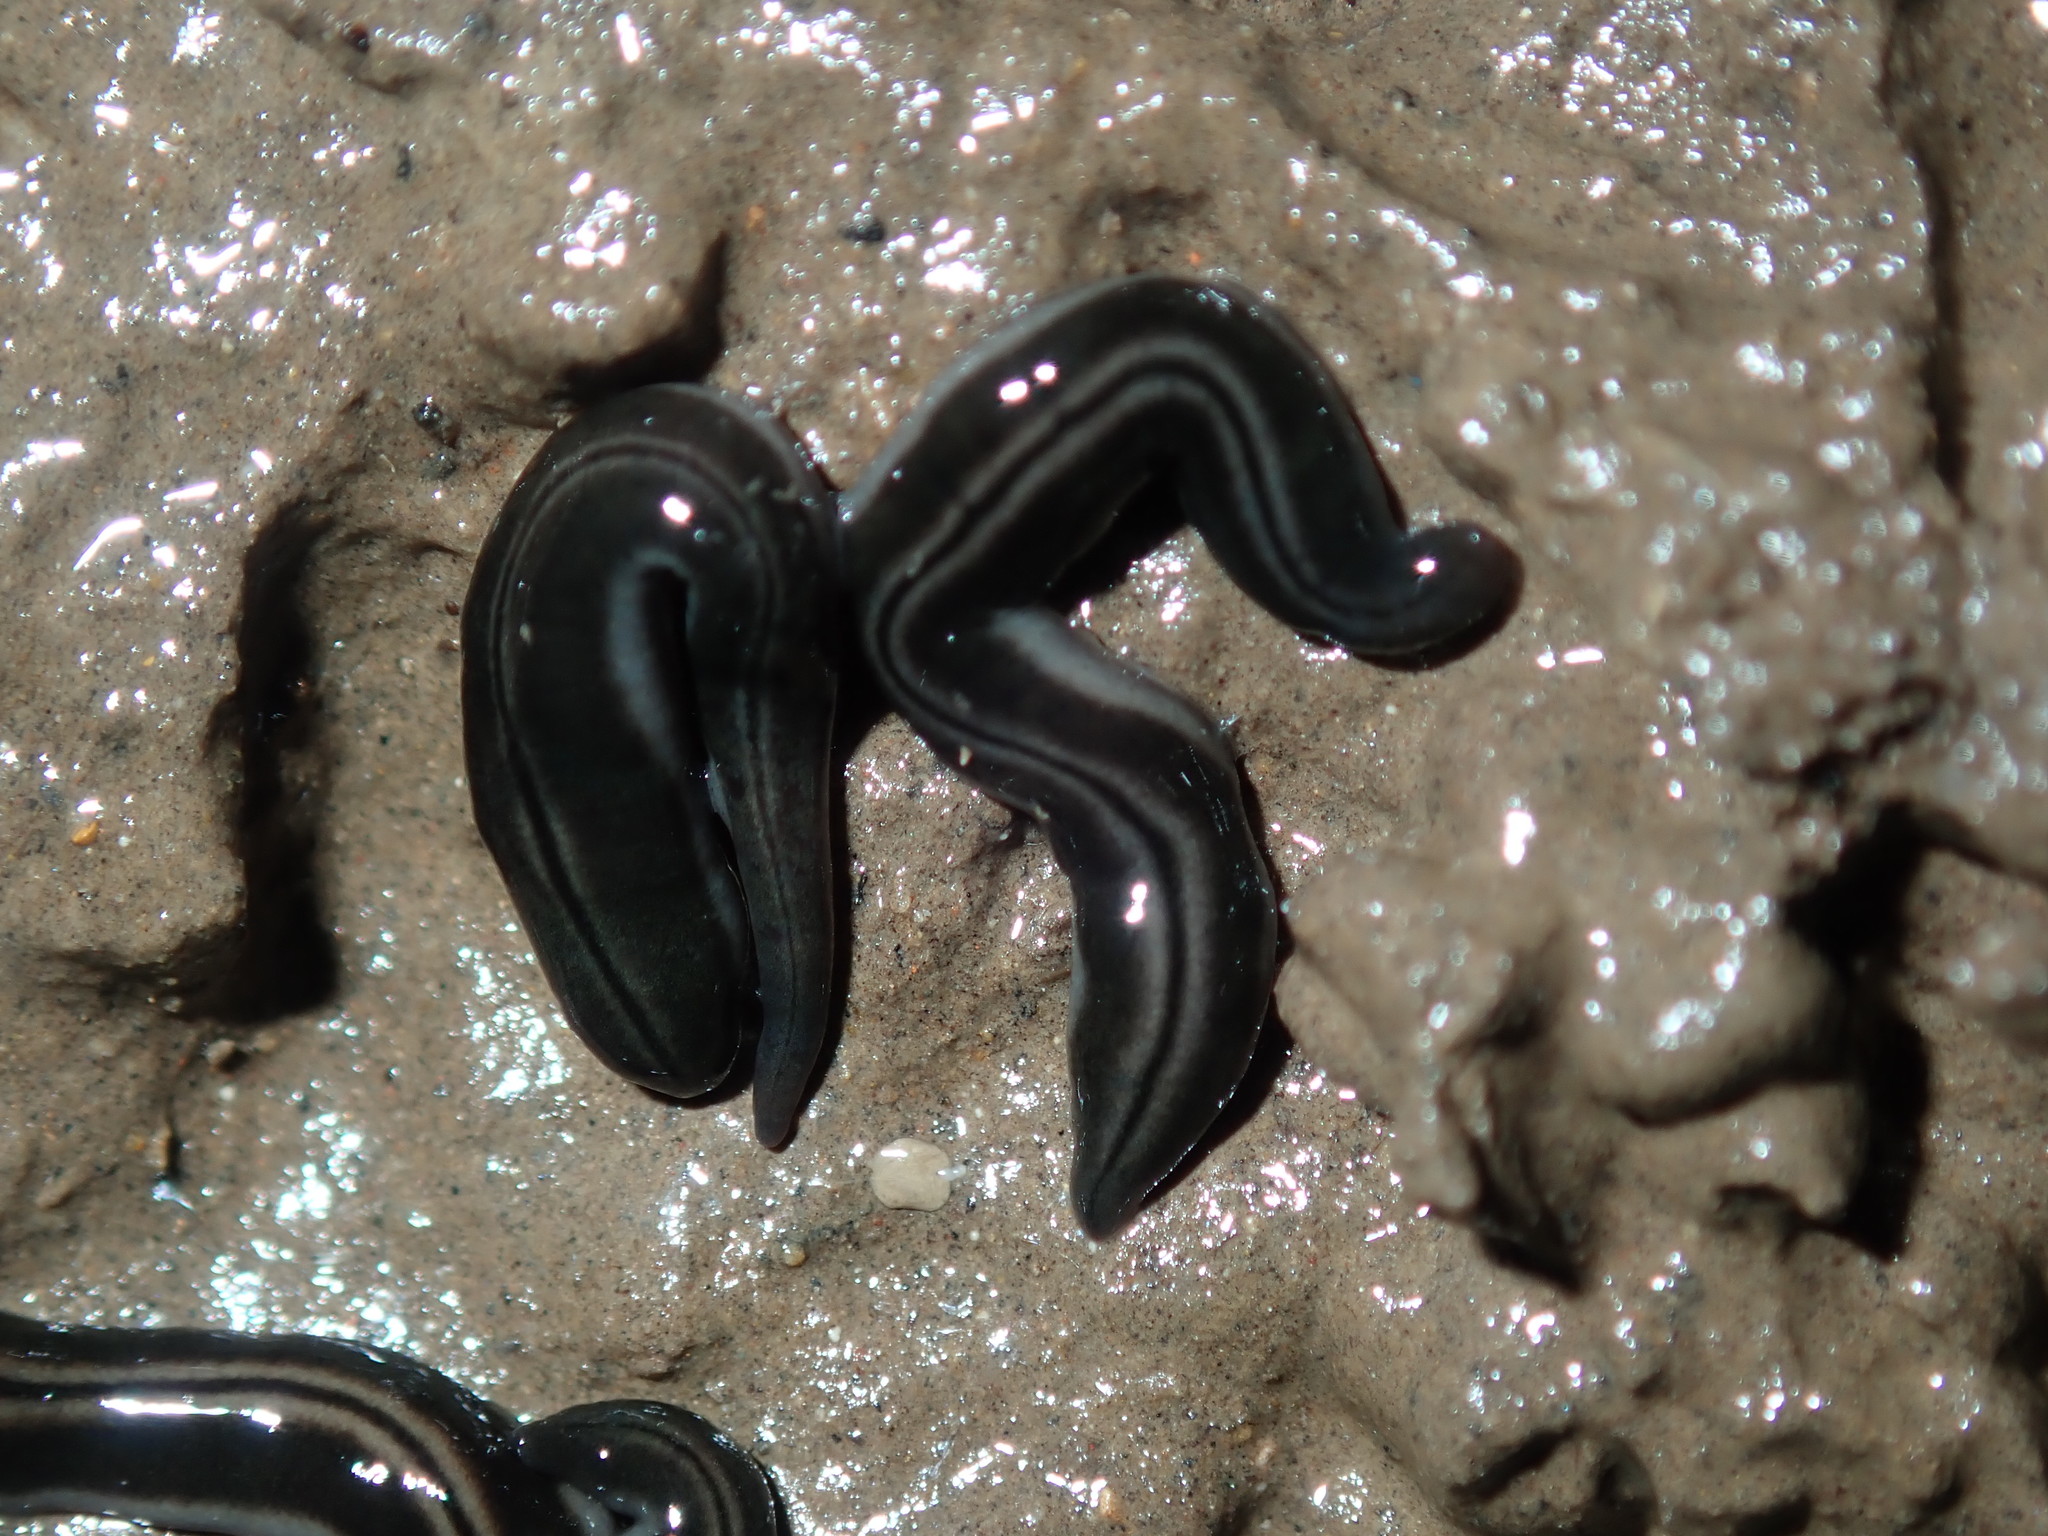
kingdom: Animalia
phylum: Platyhelminthes
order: Tricladida
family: Geoplanidae
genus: Parakontikia
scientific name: Parakontikia ventrolineata
